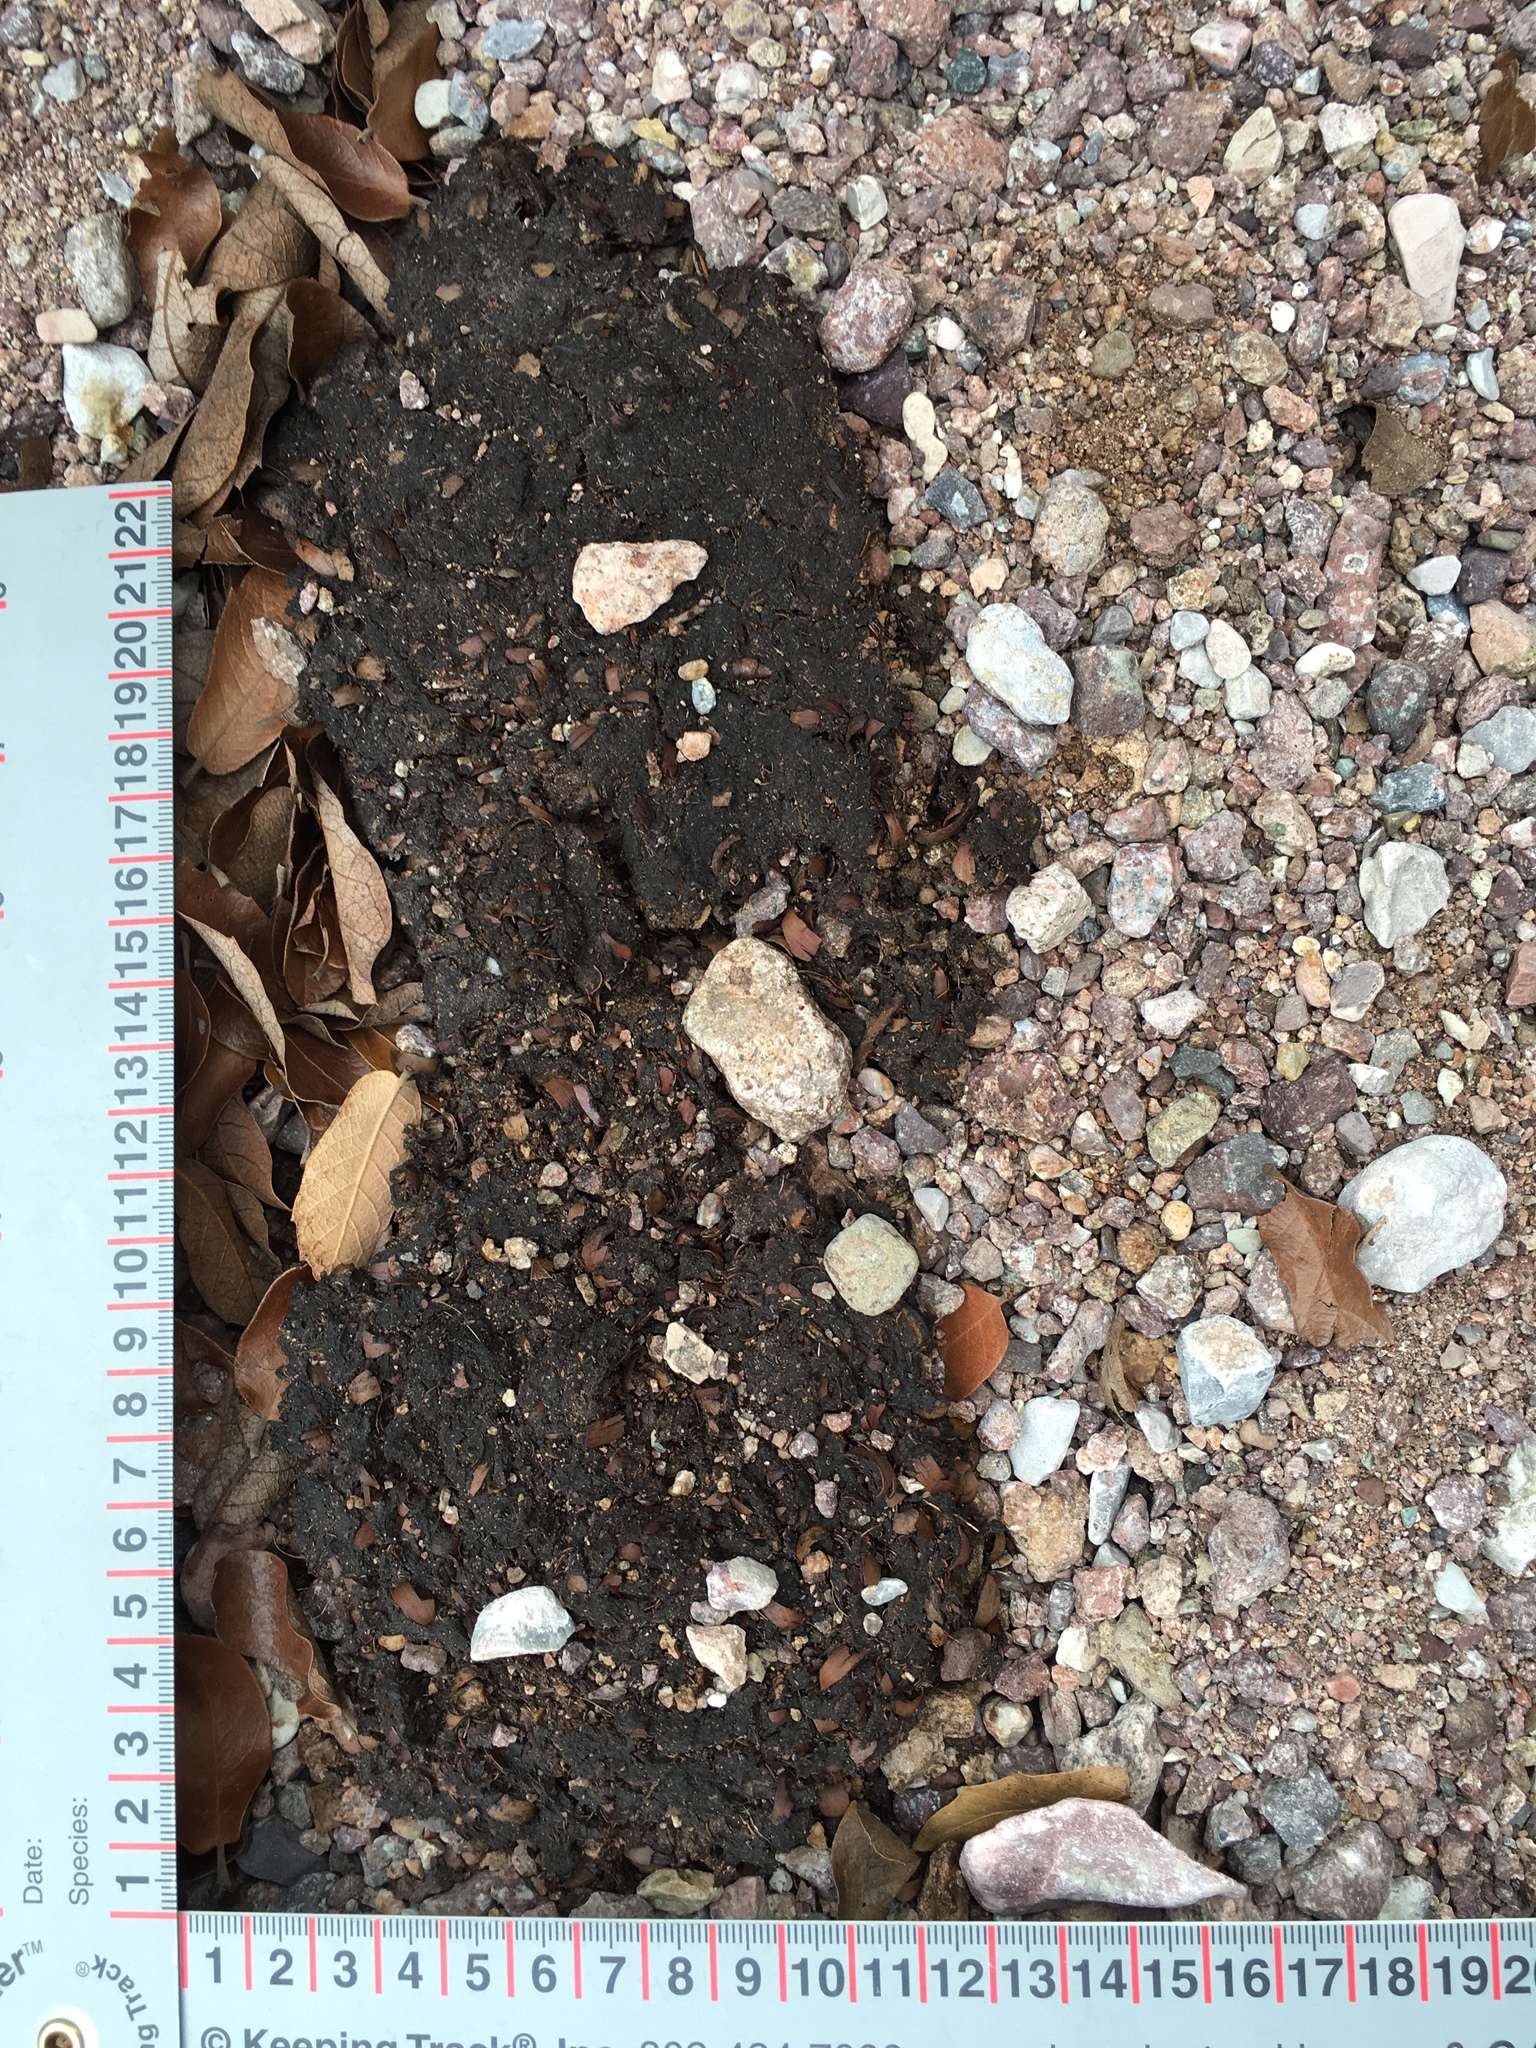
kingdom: Animalia
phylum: Chordata
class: Mammalia
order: Carnivora
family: Ursidae
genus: Ursus
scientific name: Ursus americanus
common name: American black bear
